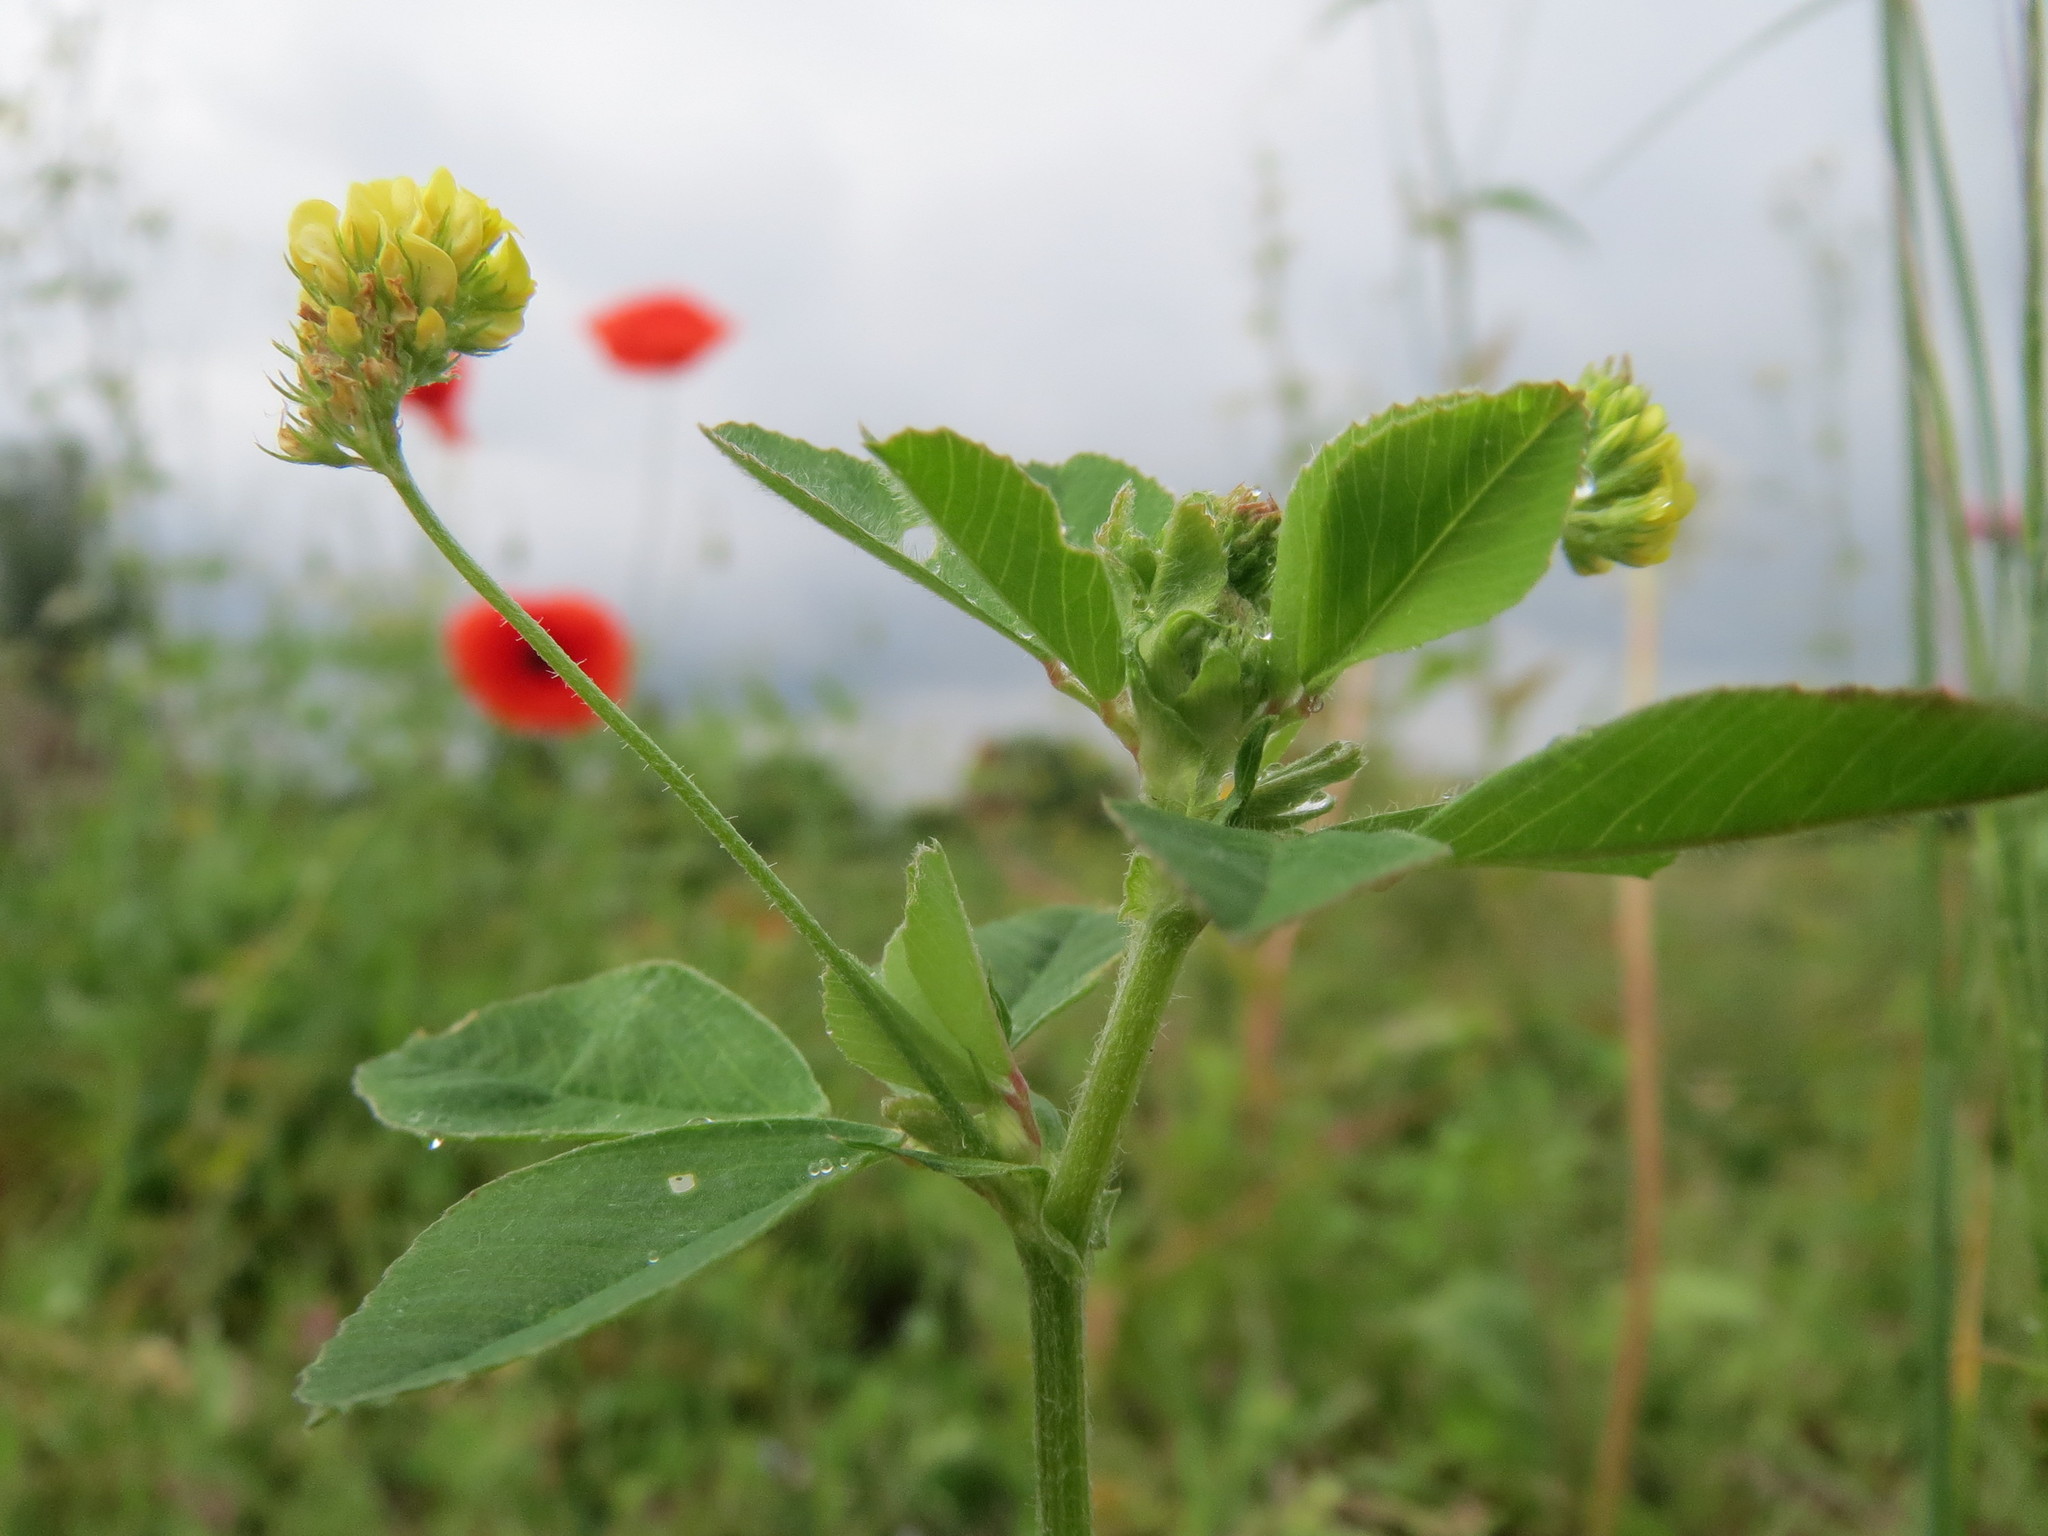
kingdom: Plantae
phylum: Tracheophyta
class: Magnoliopsida
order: Fabales
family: Fabaceae
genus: Medicago
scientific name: Medicago lupulina
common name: Black medick
